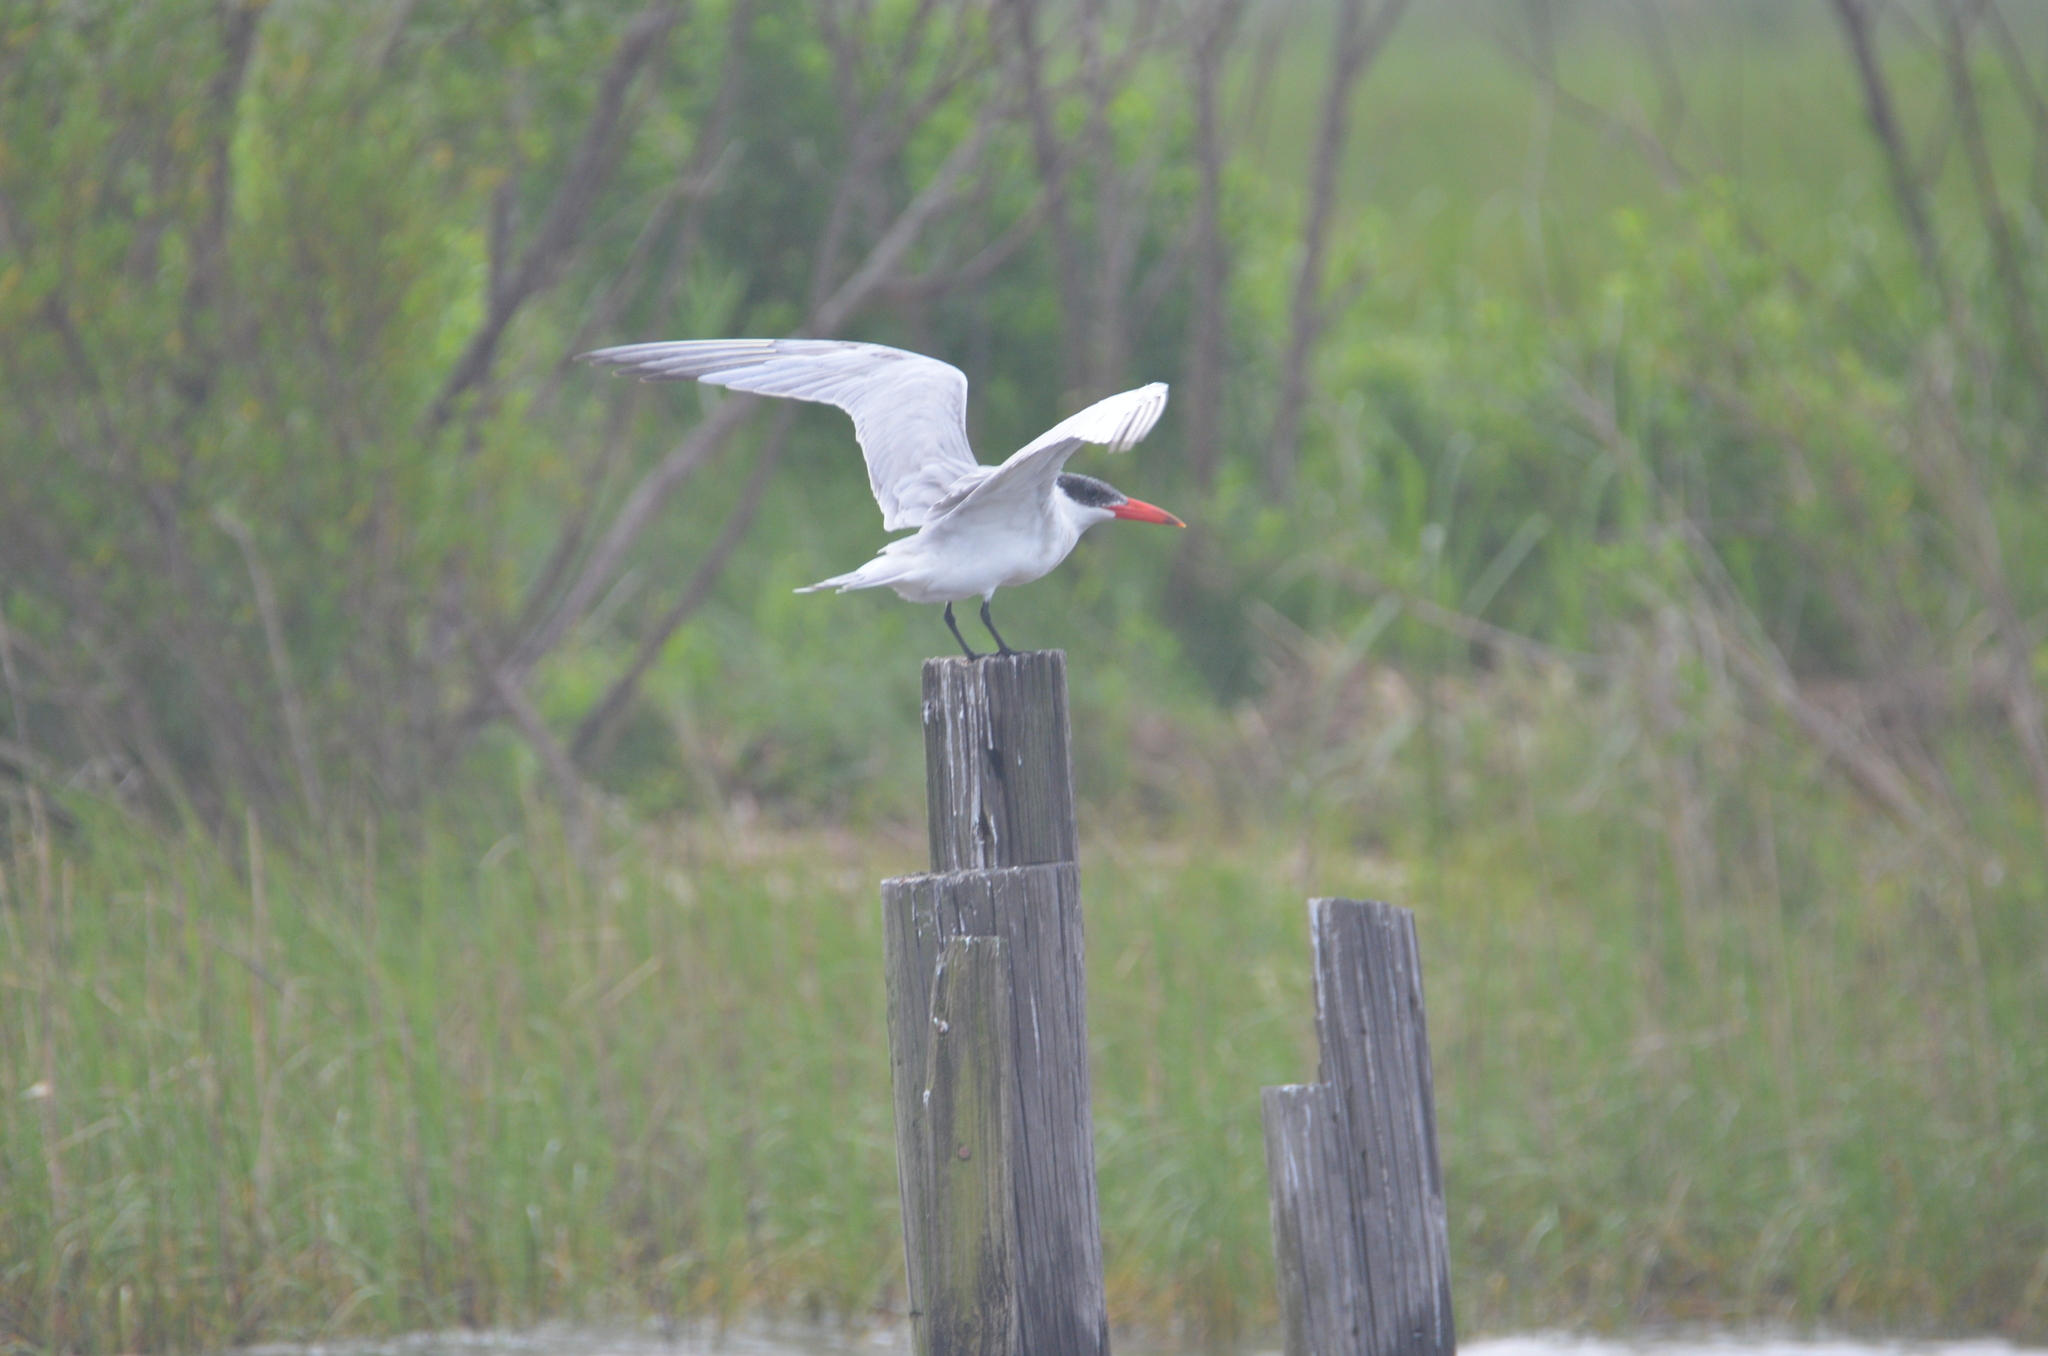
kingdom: Animalia
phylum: Chordata
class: Aves
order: Charadriiformes
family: Laridae
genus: Hydroprogne
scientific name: Hydroprogne caspia
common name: Caspian tern
